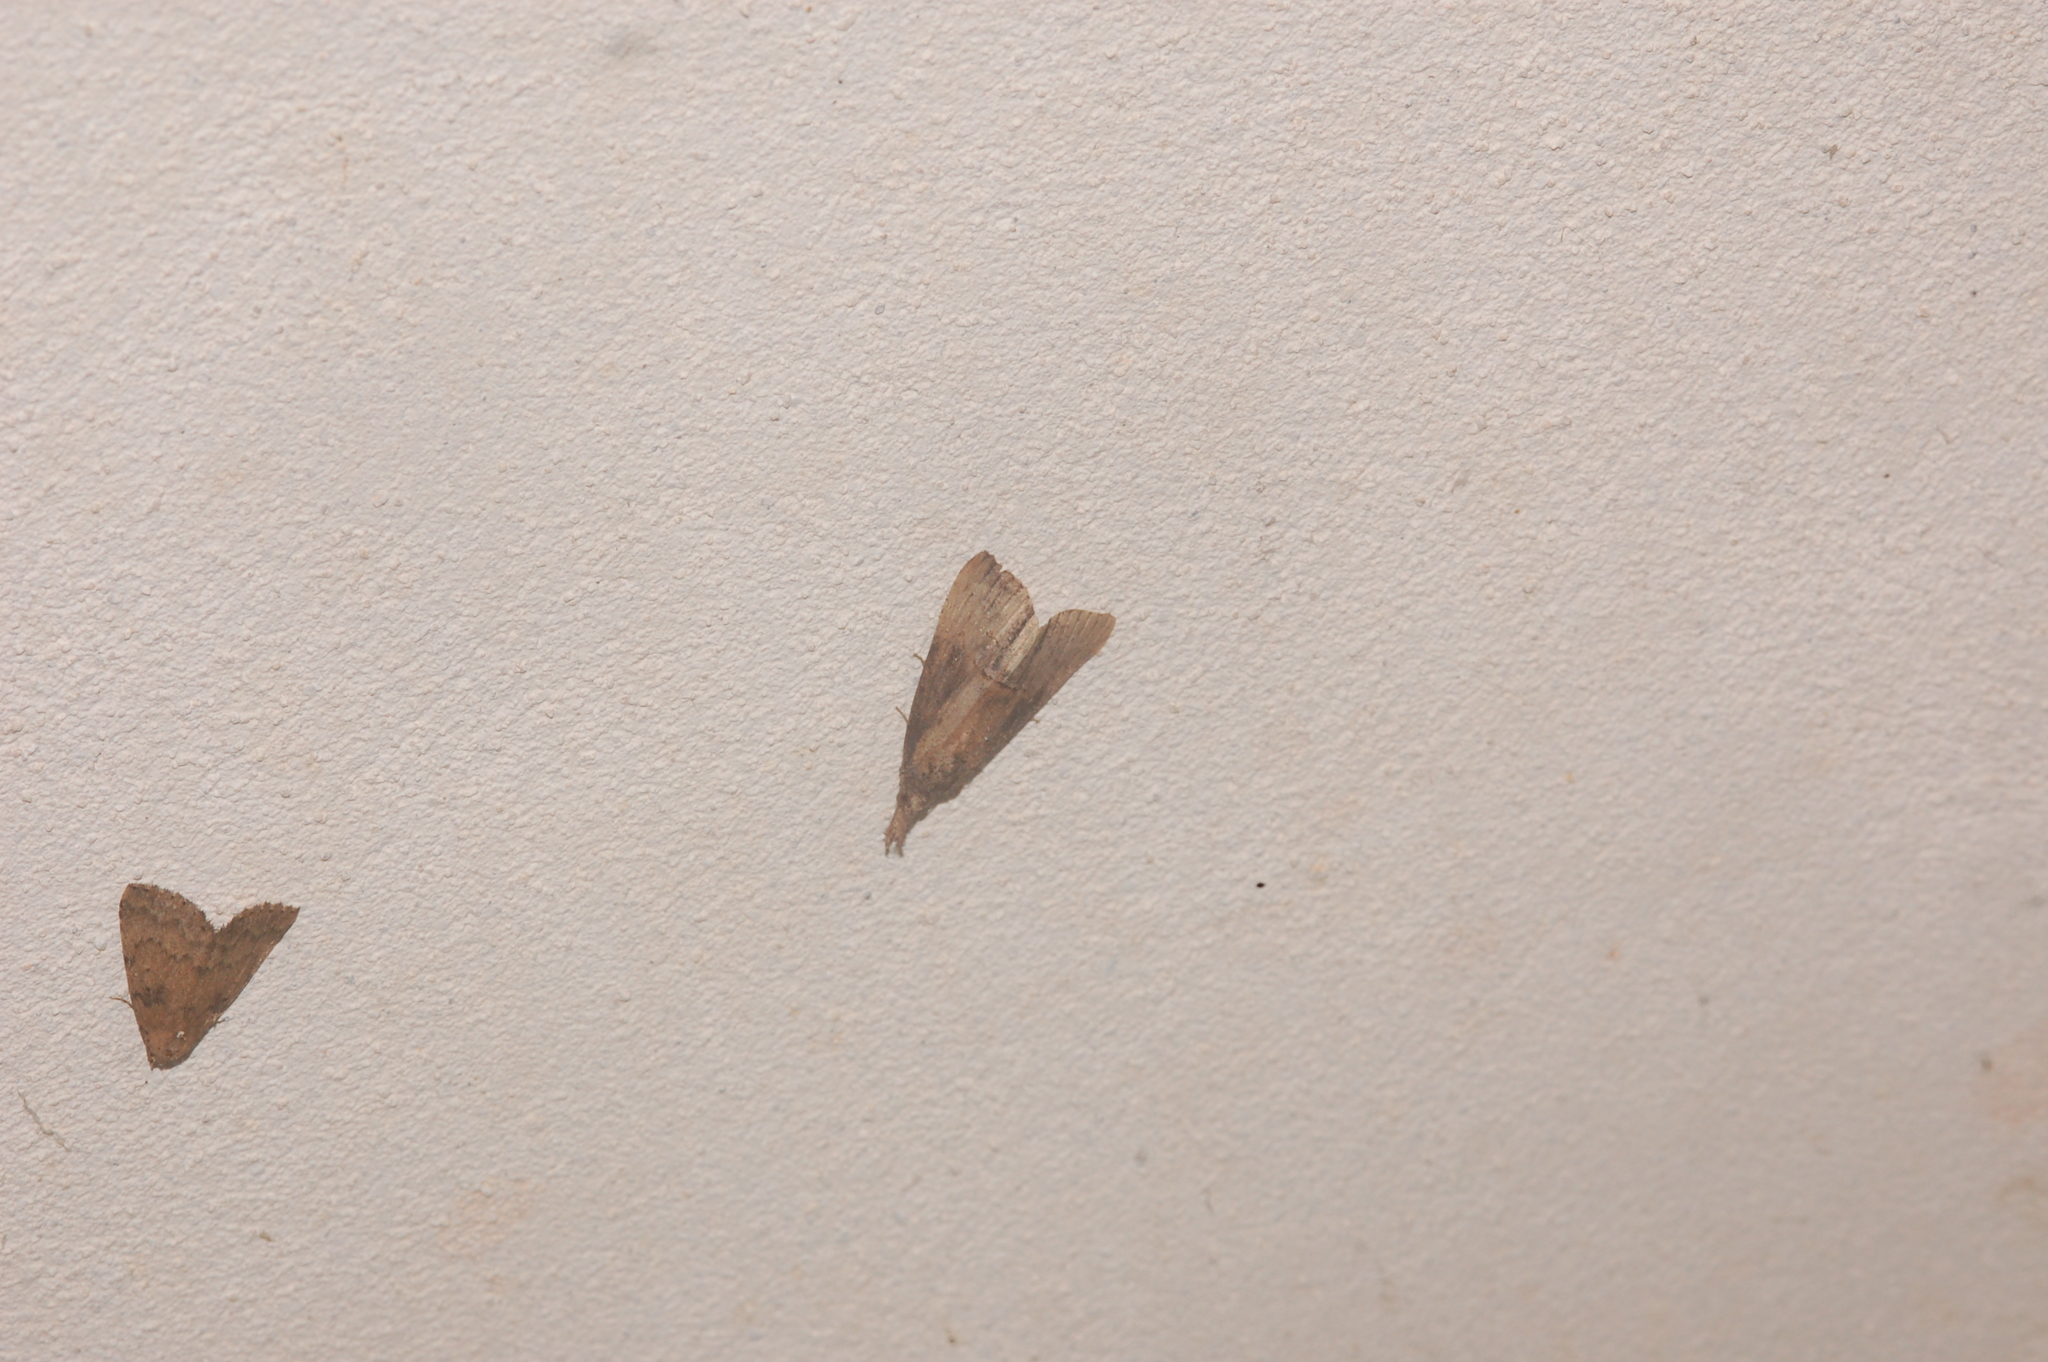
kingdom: Animalia
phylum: Arthropoda
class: Insecta
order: Lepidoptera
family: Erebidae
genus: Hypena
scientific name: Hypena scabra
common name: Green cloverworm
